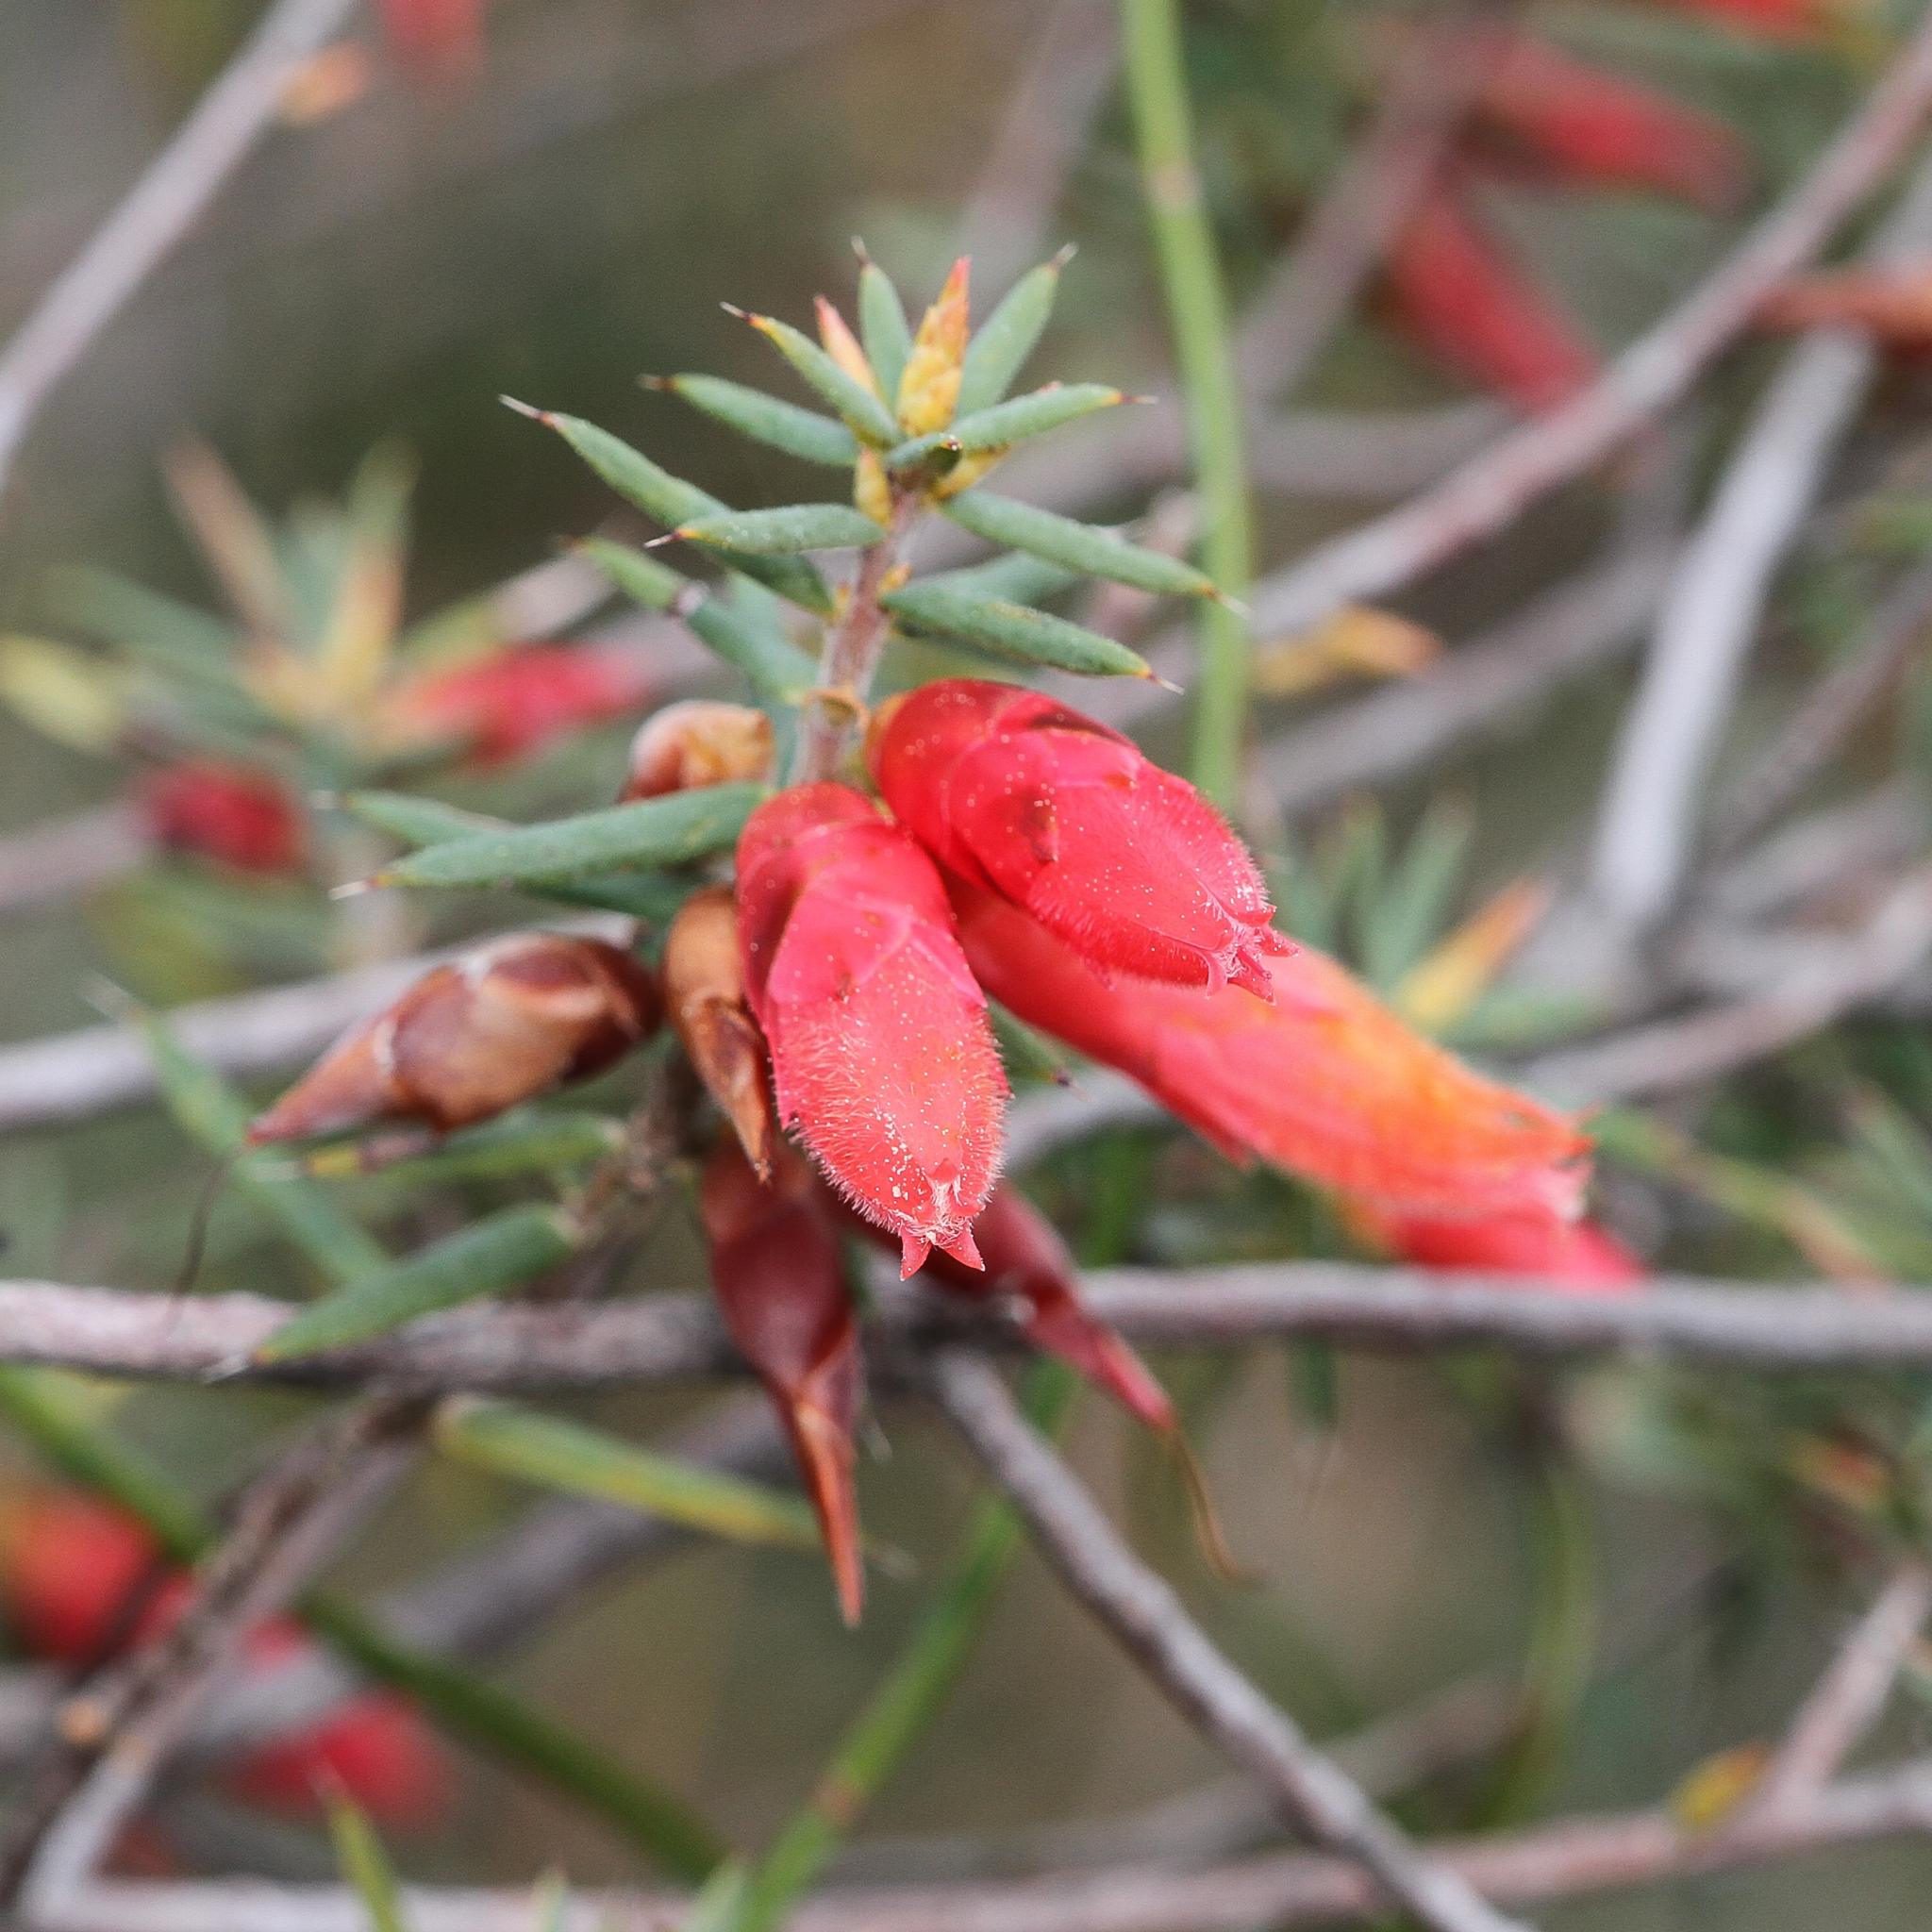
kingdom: Plantae
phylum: Tracheophyta
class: Magnoliopsida
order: Ericales
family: Ericaceae
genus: Stenanthera
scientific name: Stenanthera conostephioides
